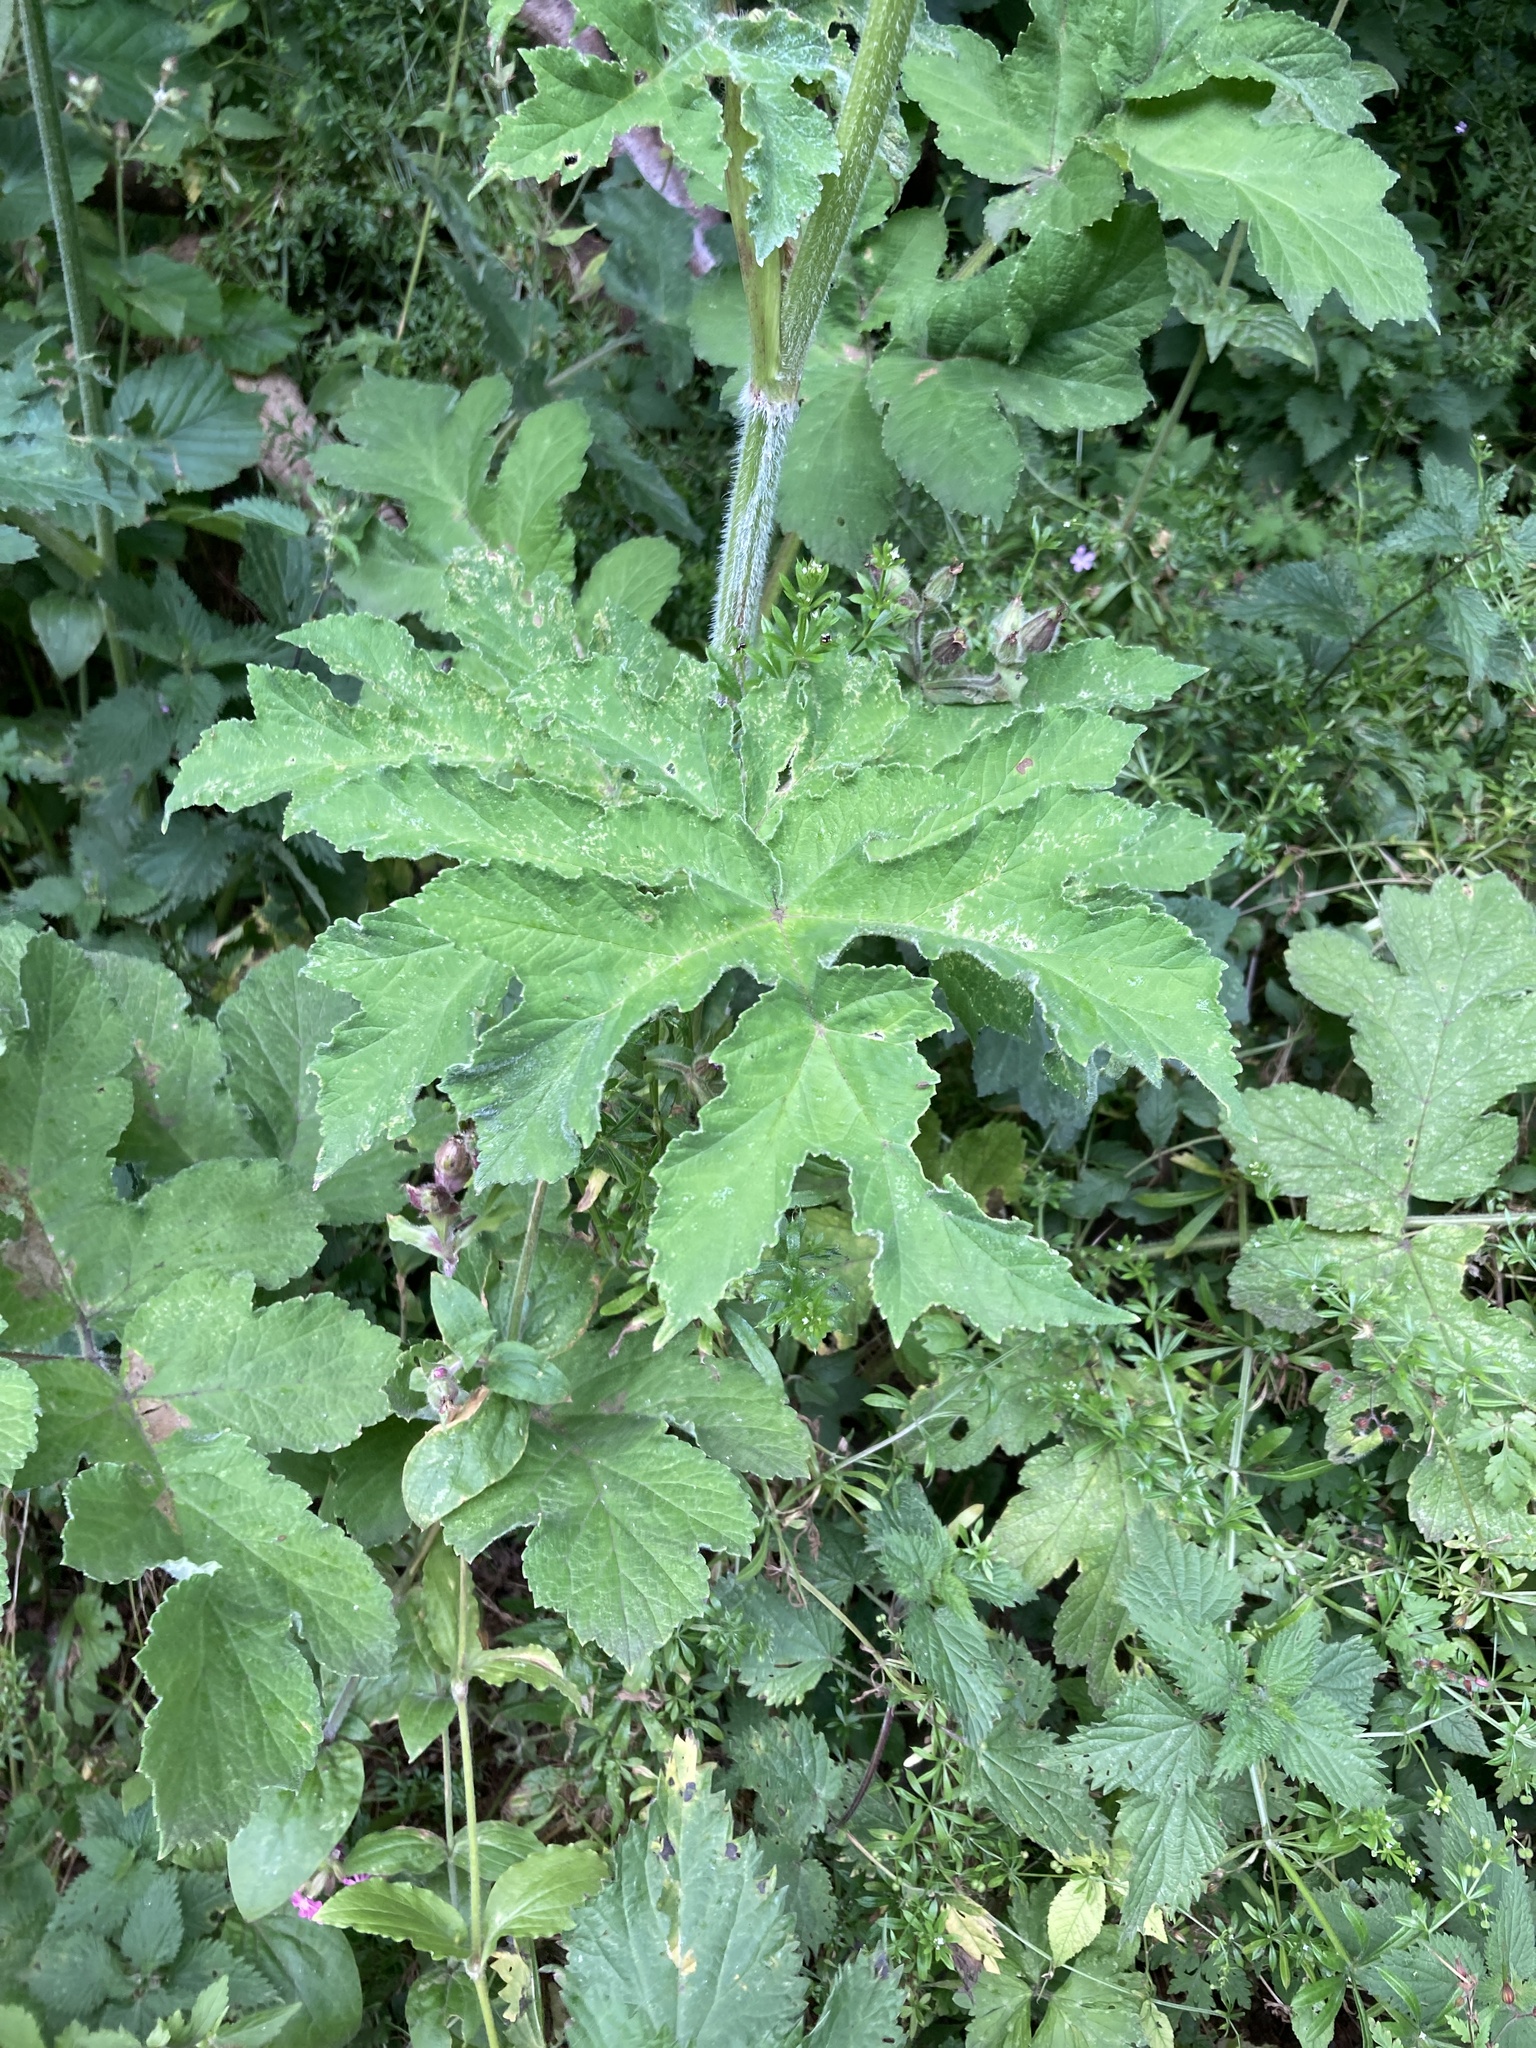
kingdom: Plantae
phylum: Tracheophyta
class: Magnoliopsida
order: Apiales
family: Apiaceae
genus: Heracleum
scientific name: Heracleum sphondylium
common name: Hogweed
